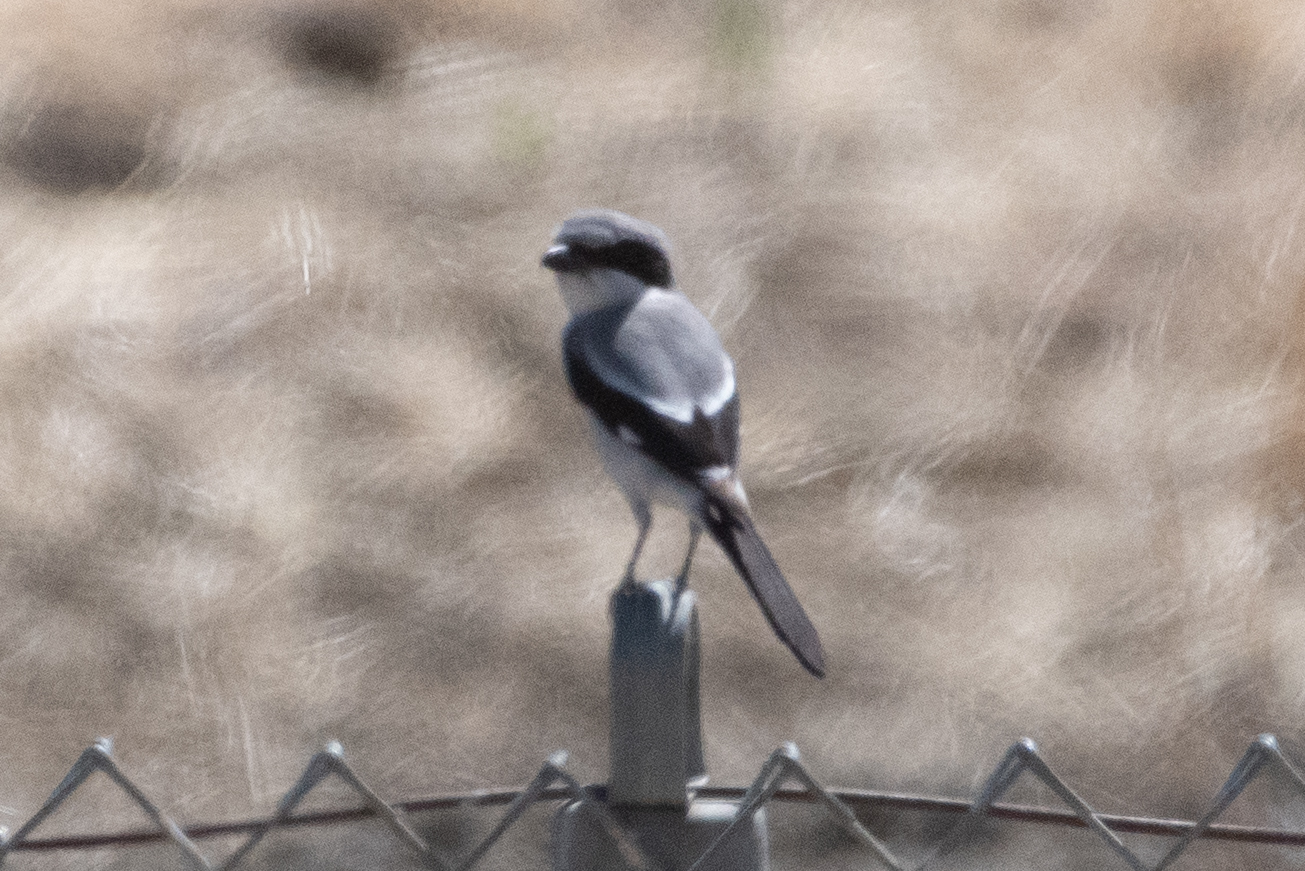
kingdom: Animalia
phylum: Chordata
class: Aves
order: Passeriformes
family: Laniidae
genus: Lanius
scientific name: Lanius ludovicianus
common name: Loggerhead shrike
